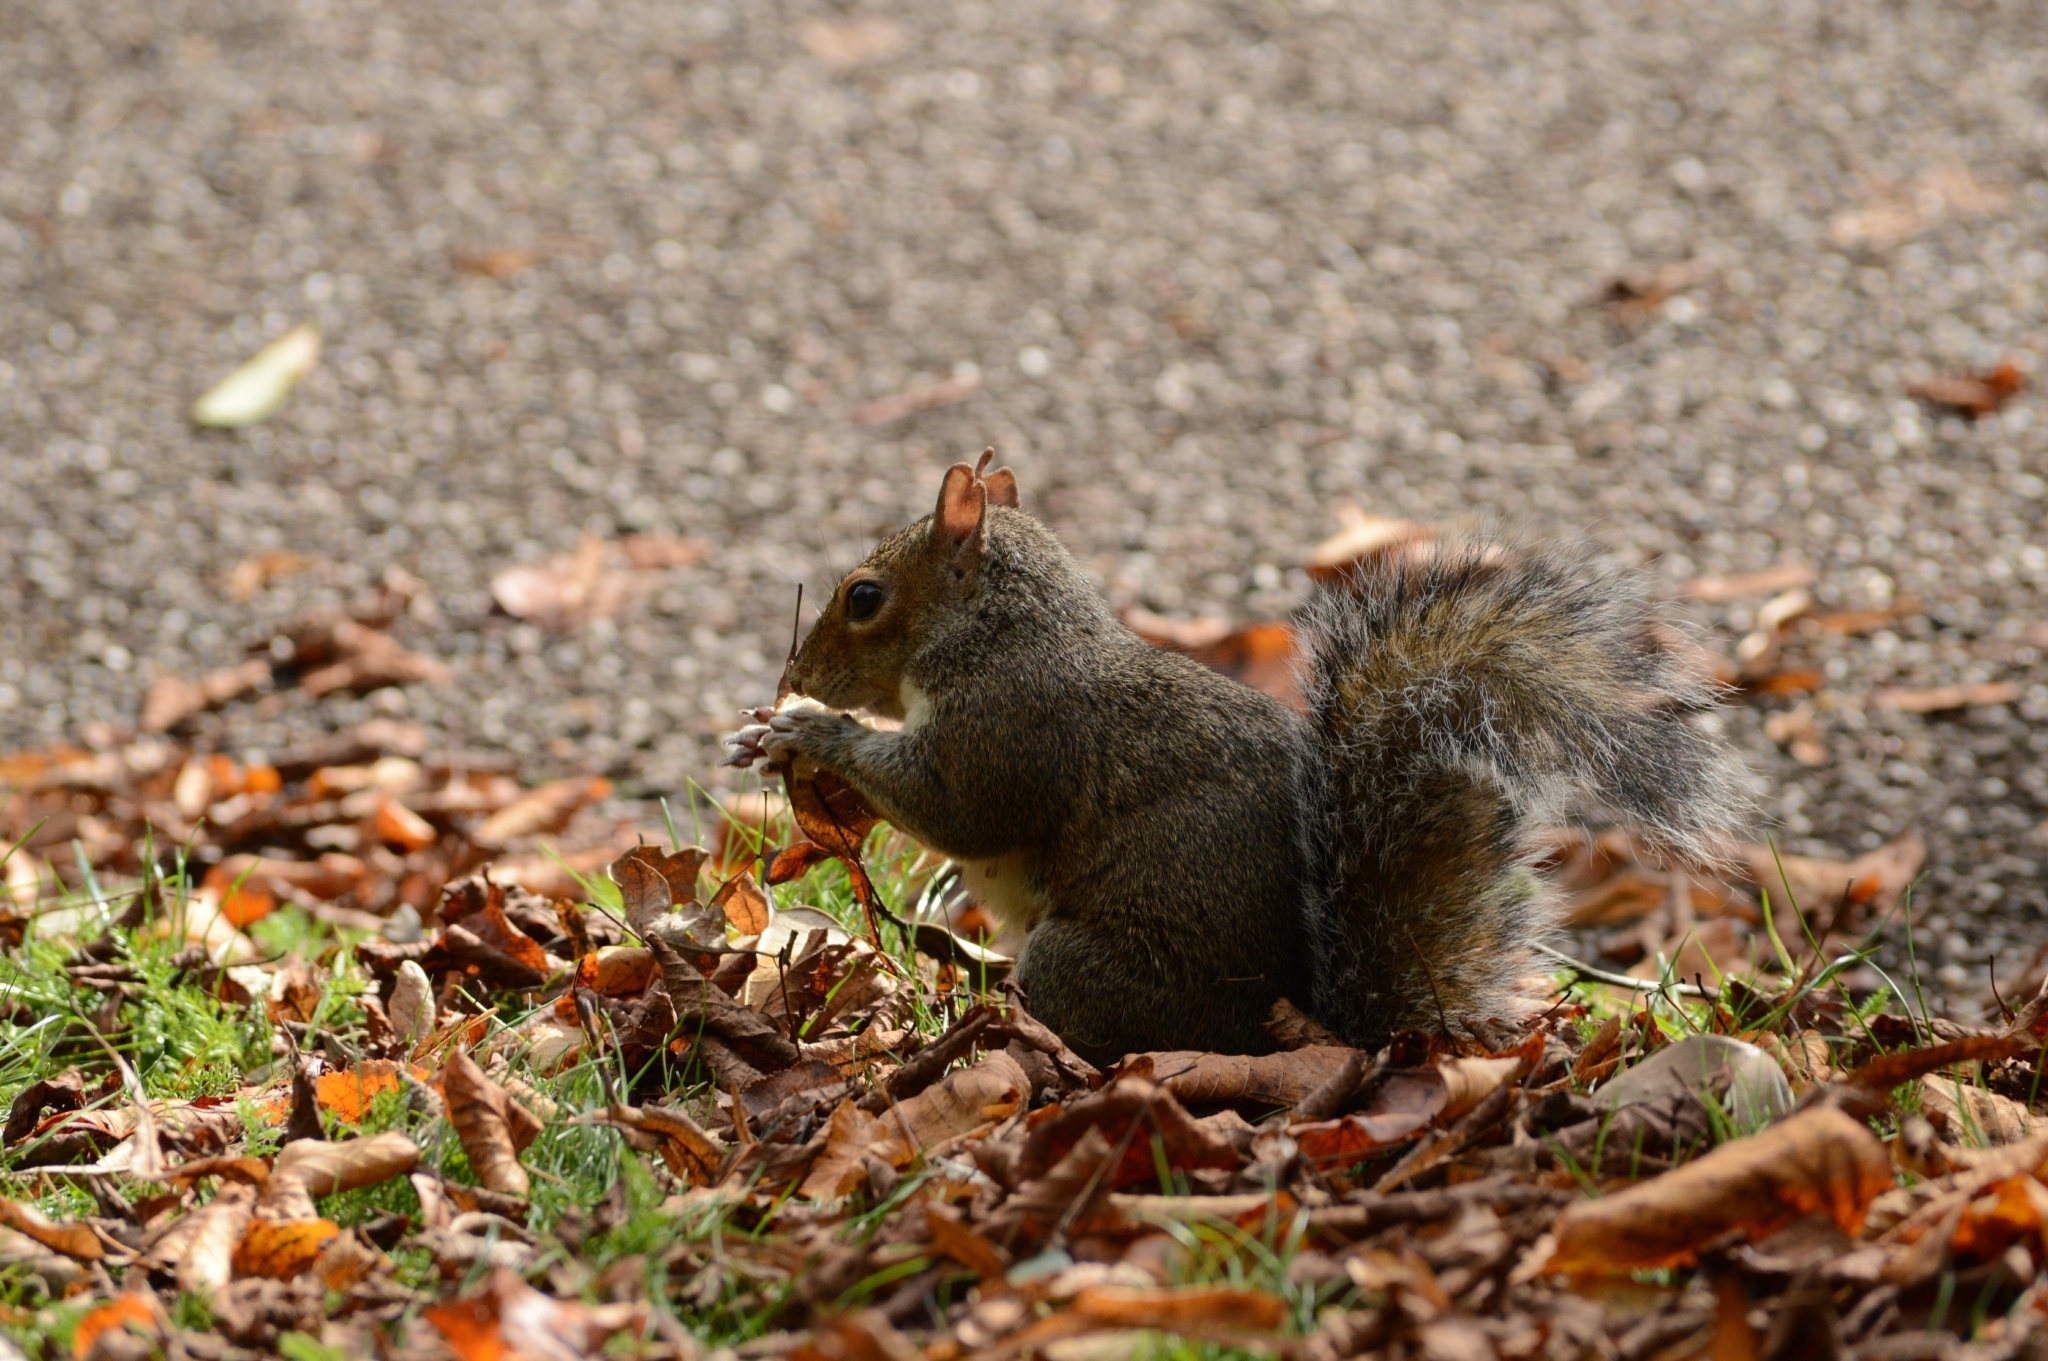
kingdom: Animalia
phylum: Chordata
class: Mammalia
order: Rodentia
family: Sciuridae
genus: Sciurus
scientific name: Sciurus carolinensis
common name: Eastern gray squirrel
